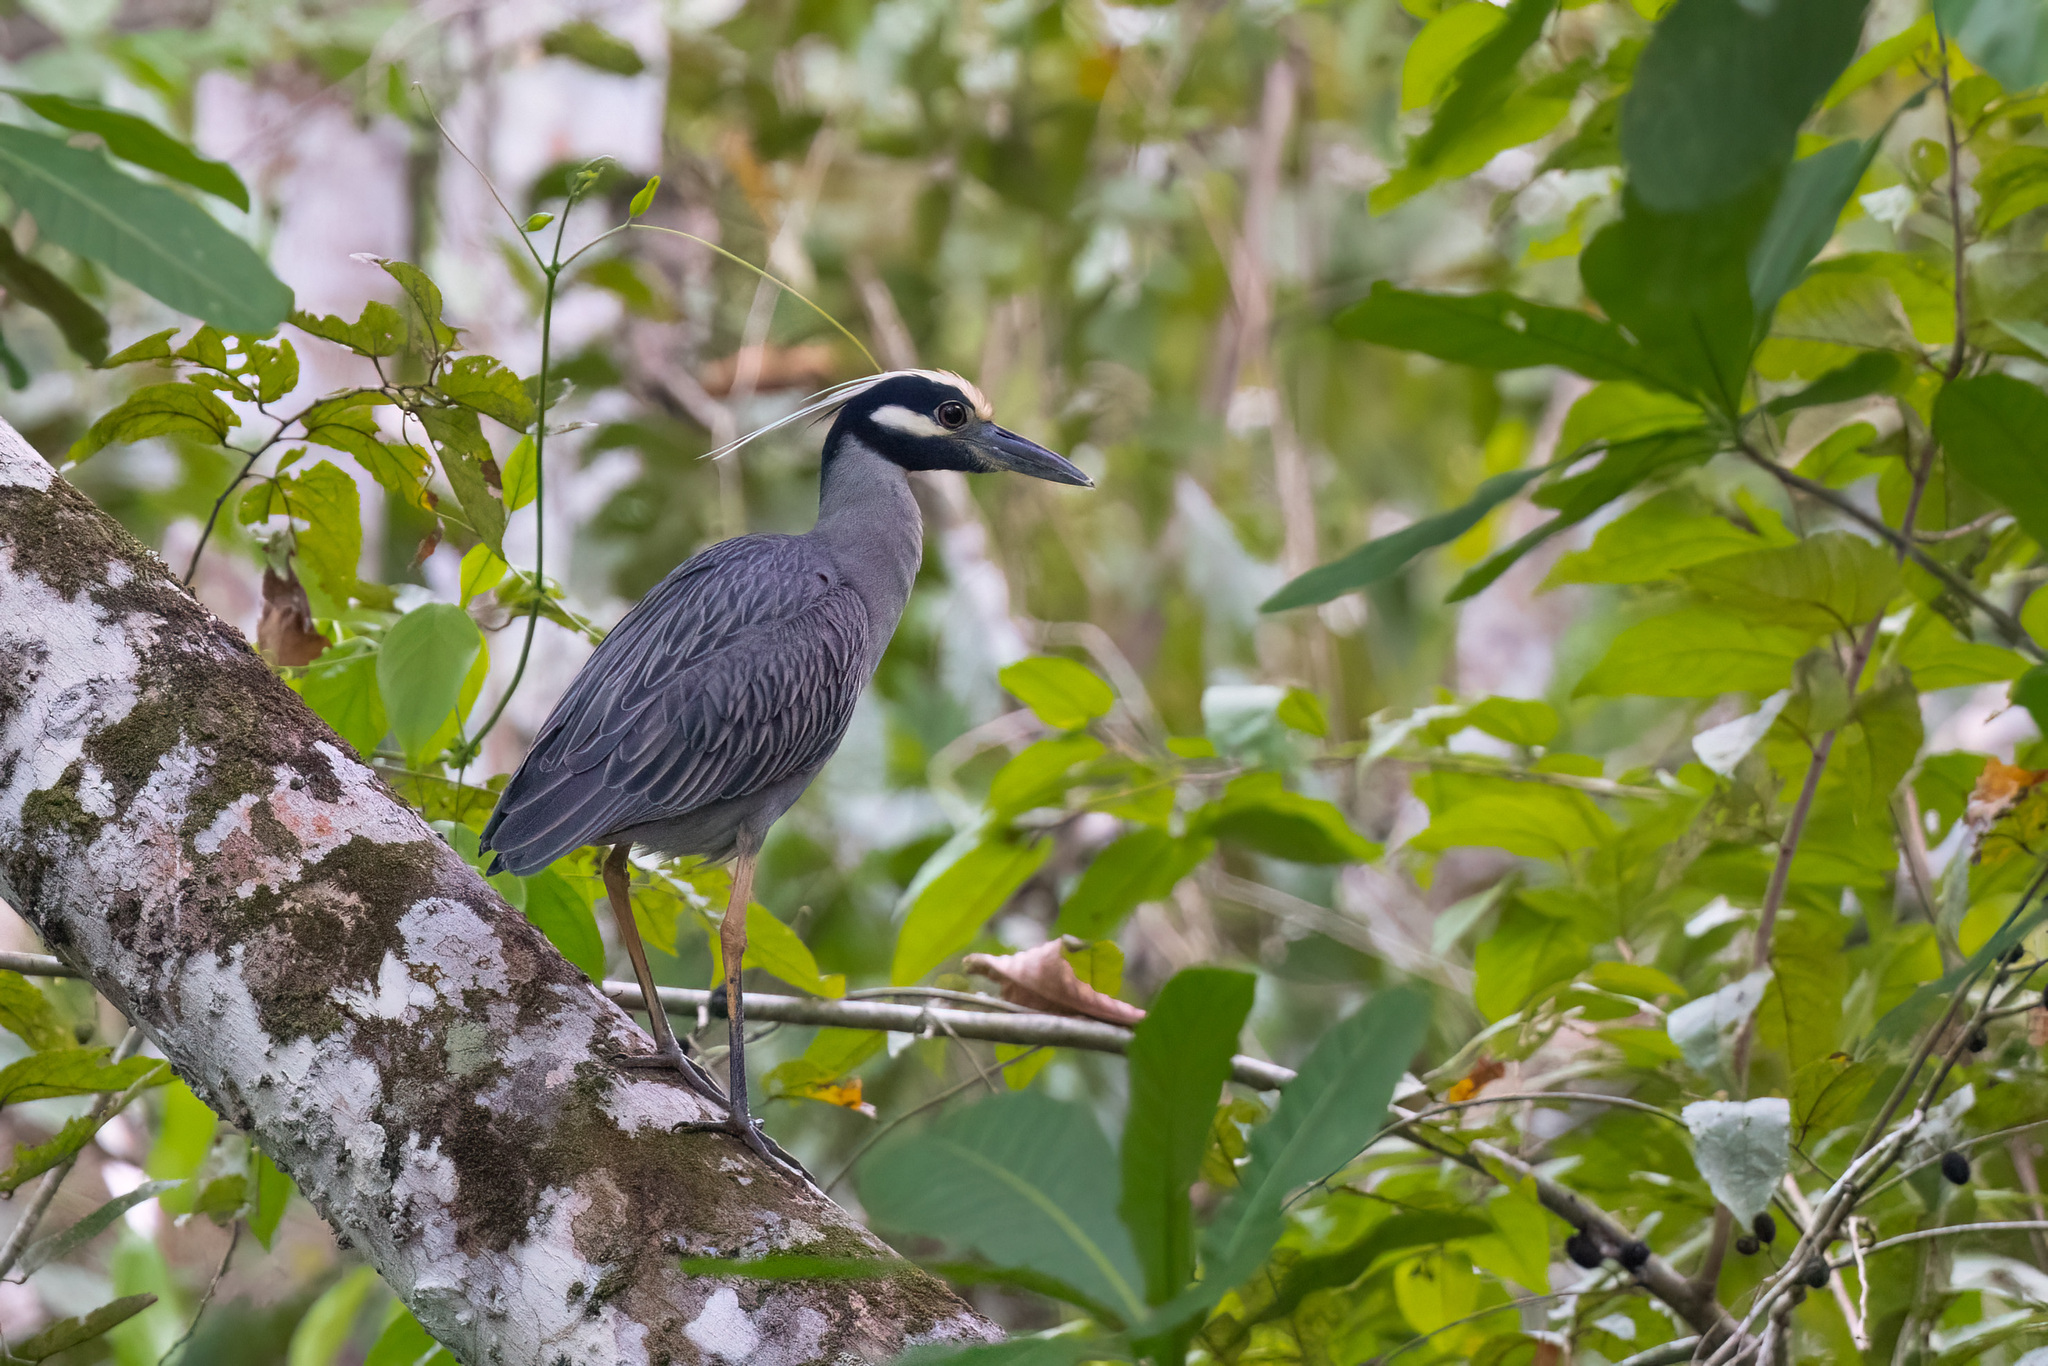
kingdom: Animalia
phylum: Chordata
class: Aves
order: Pelecaniformes
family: Ardeidae
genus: Nyctanassa
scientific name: Nyctanassa violacea
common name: Yellow-crowned night heron
